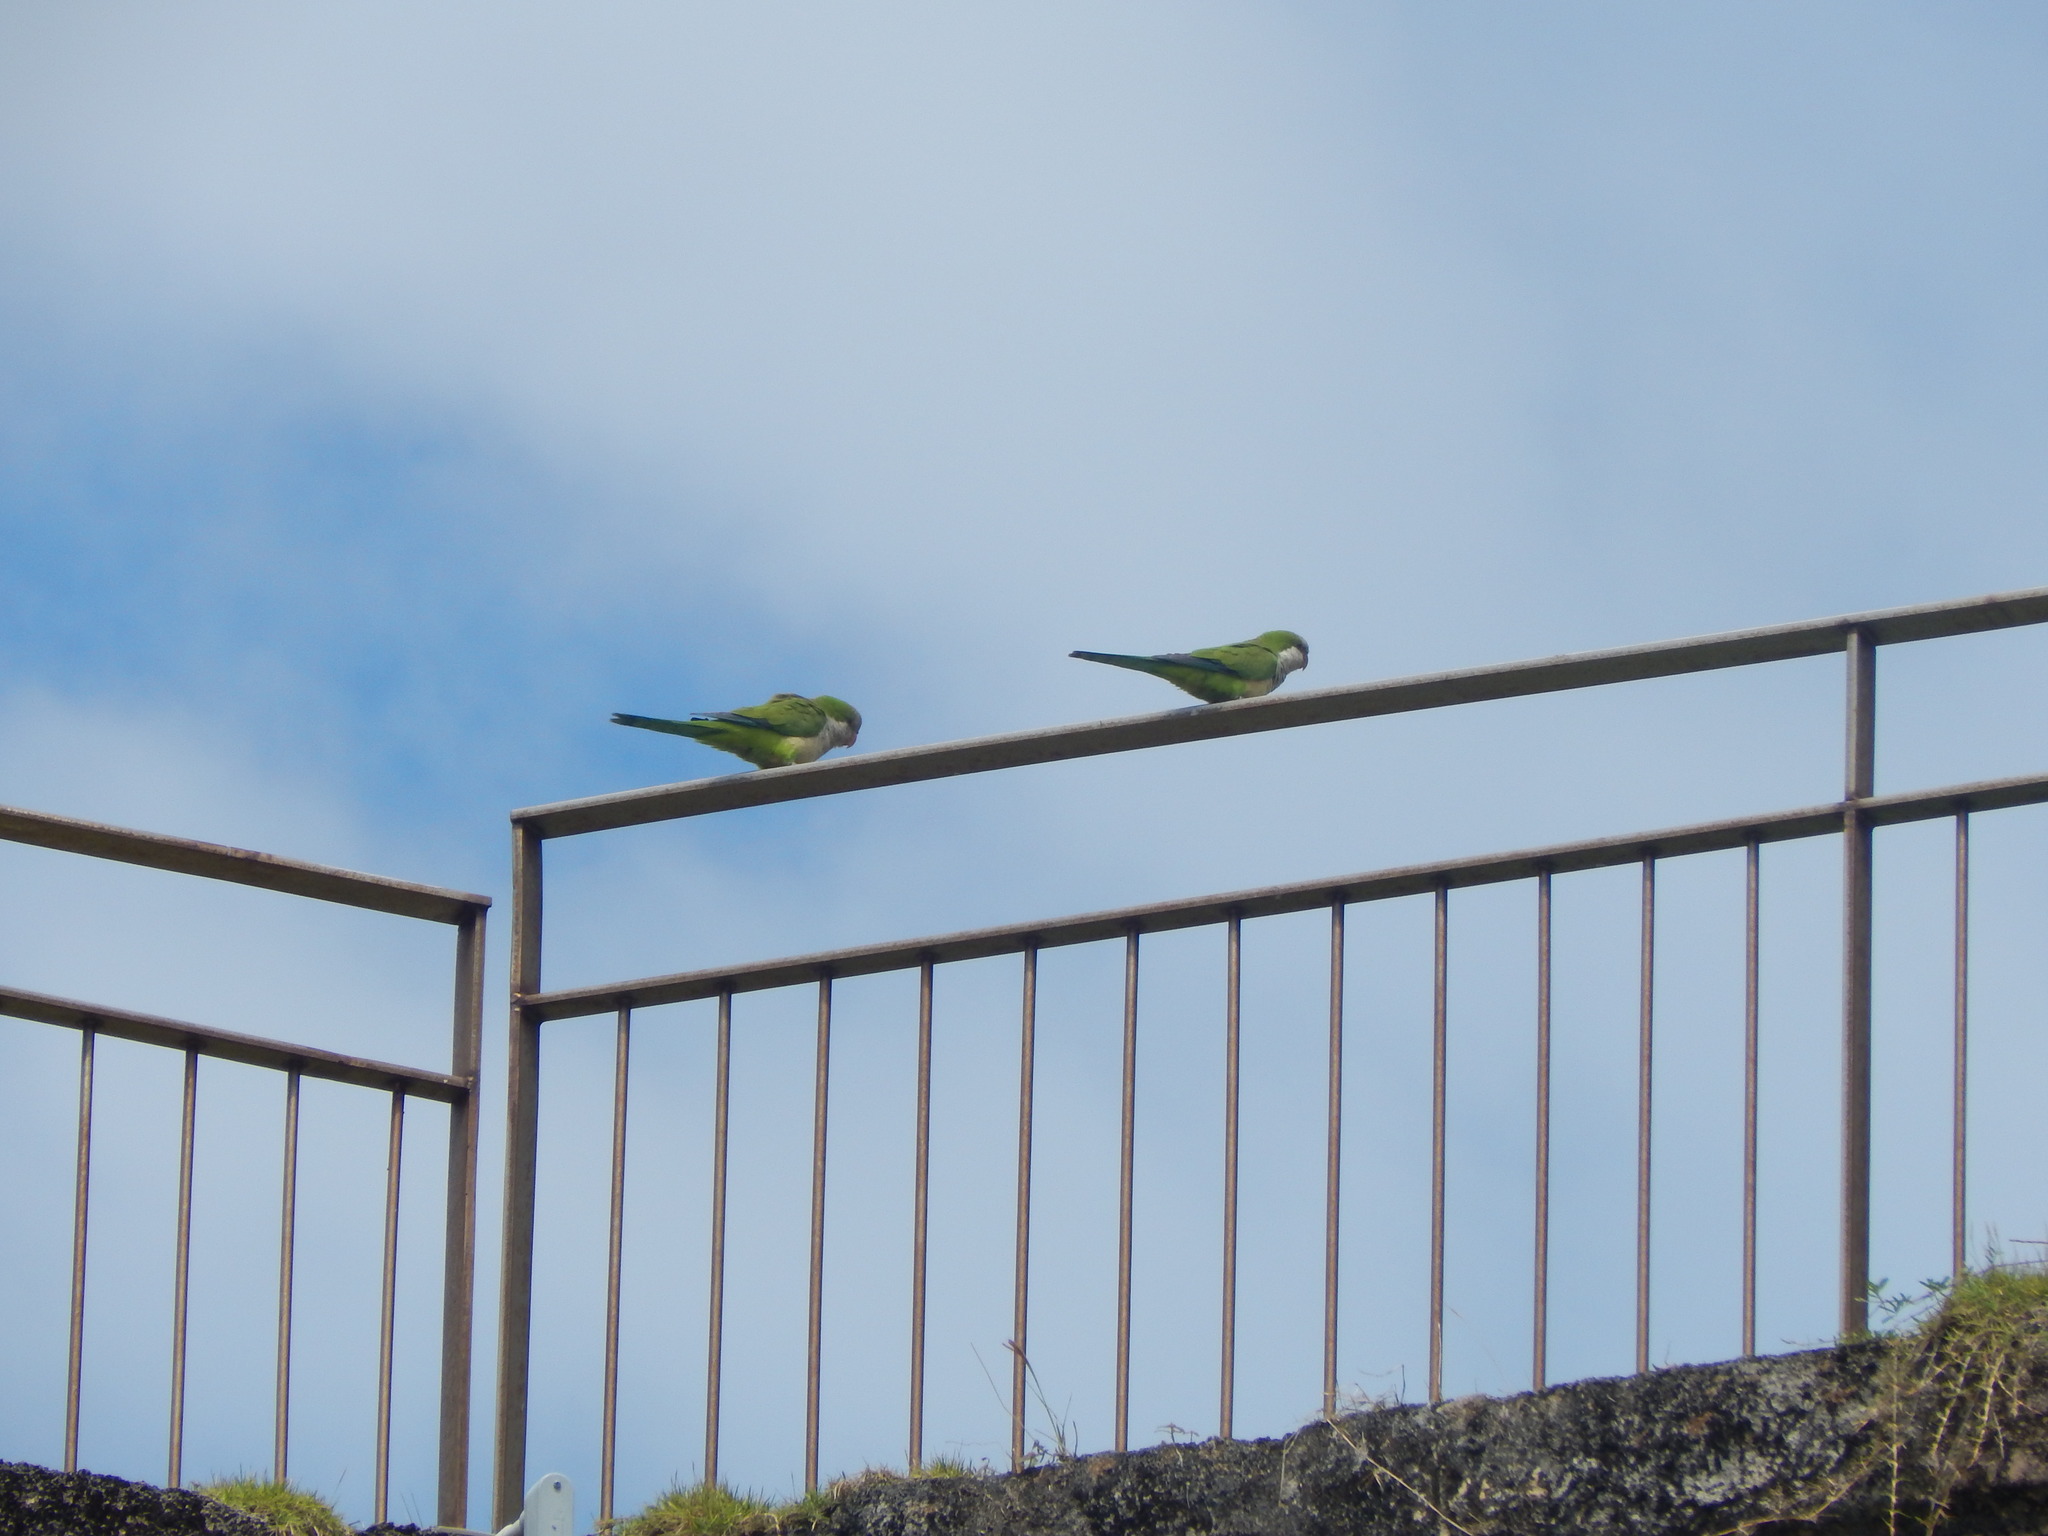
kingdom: Animalia
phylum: Chordata
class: Aves
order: Psittaciformes
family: Psittacidae
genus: Myiopsitta
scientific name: Myiopsitta monachus
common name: Monk parakeet
